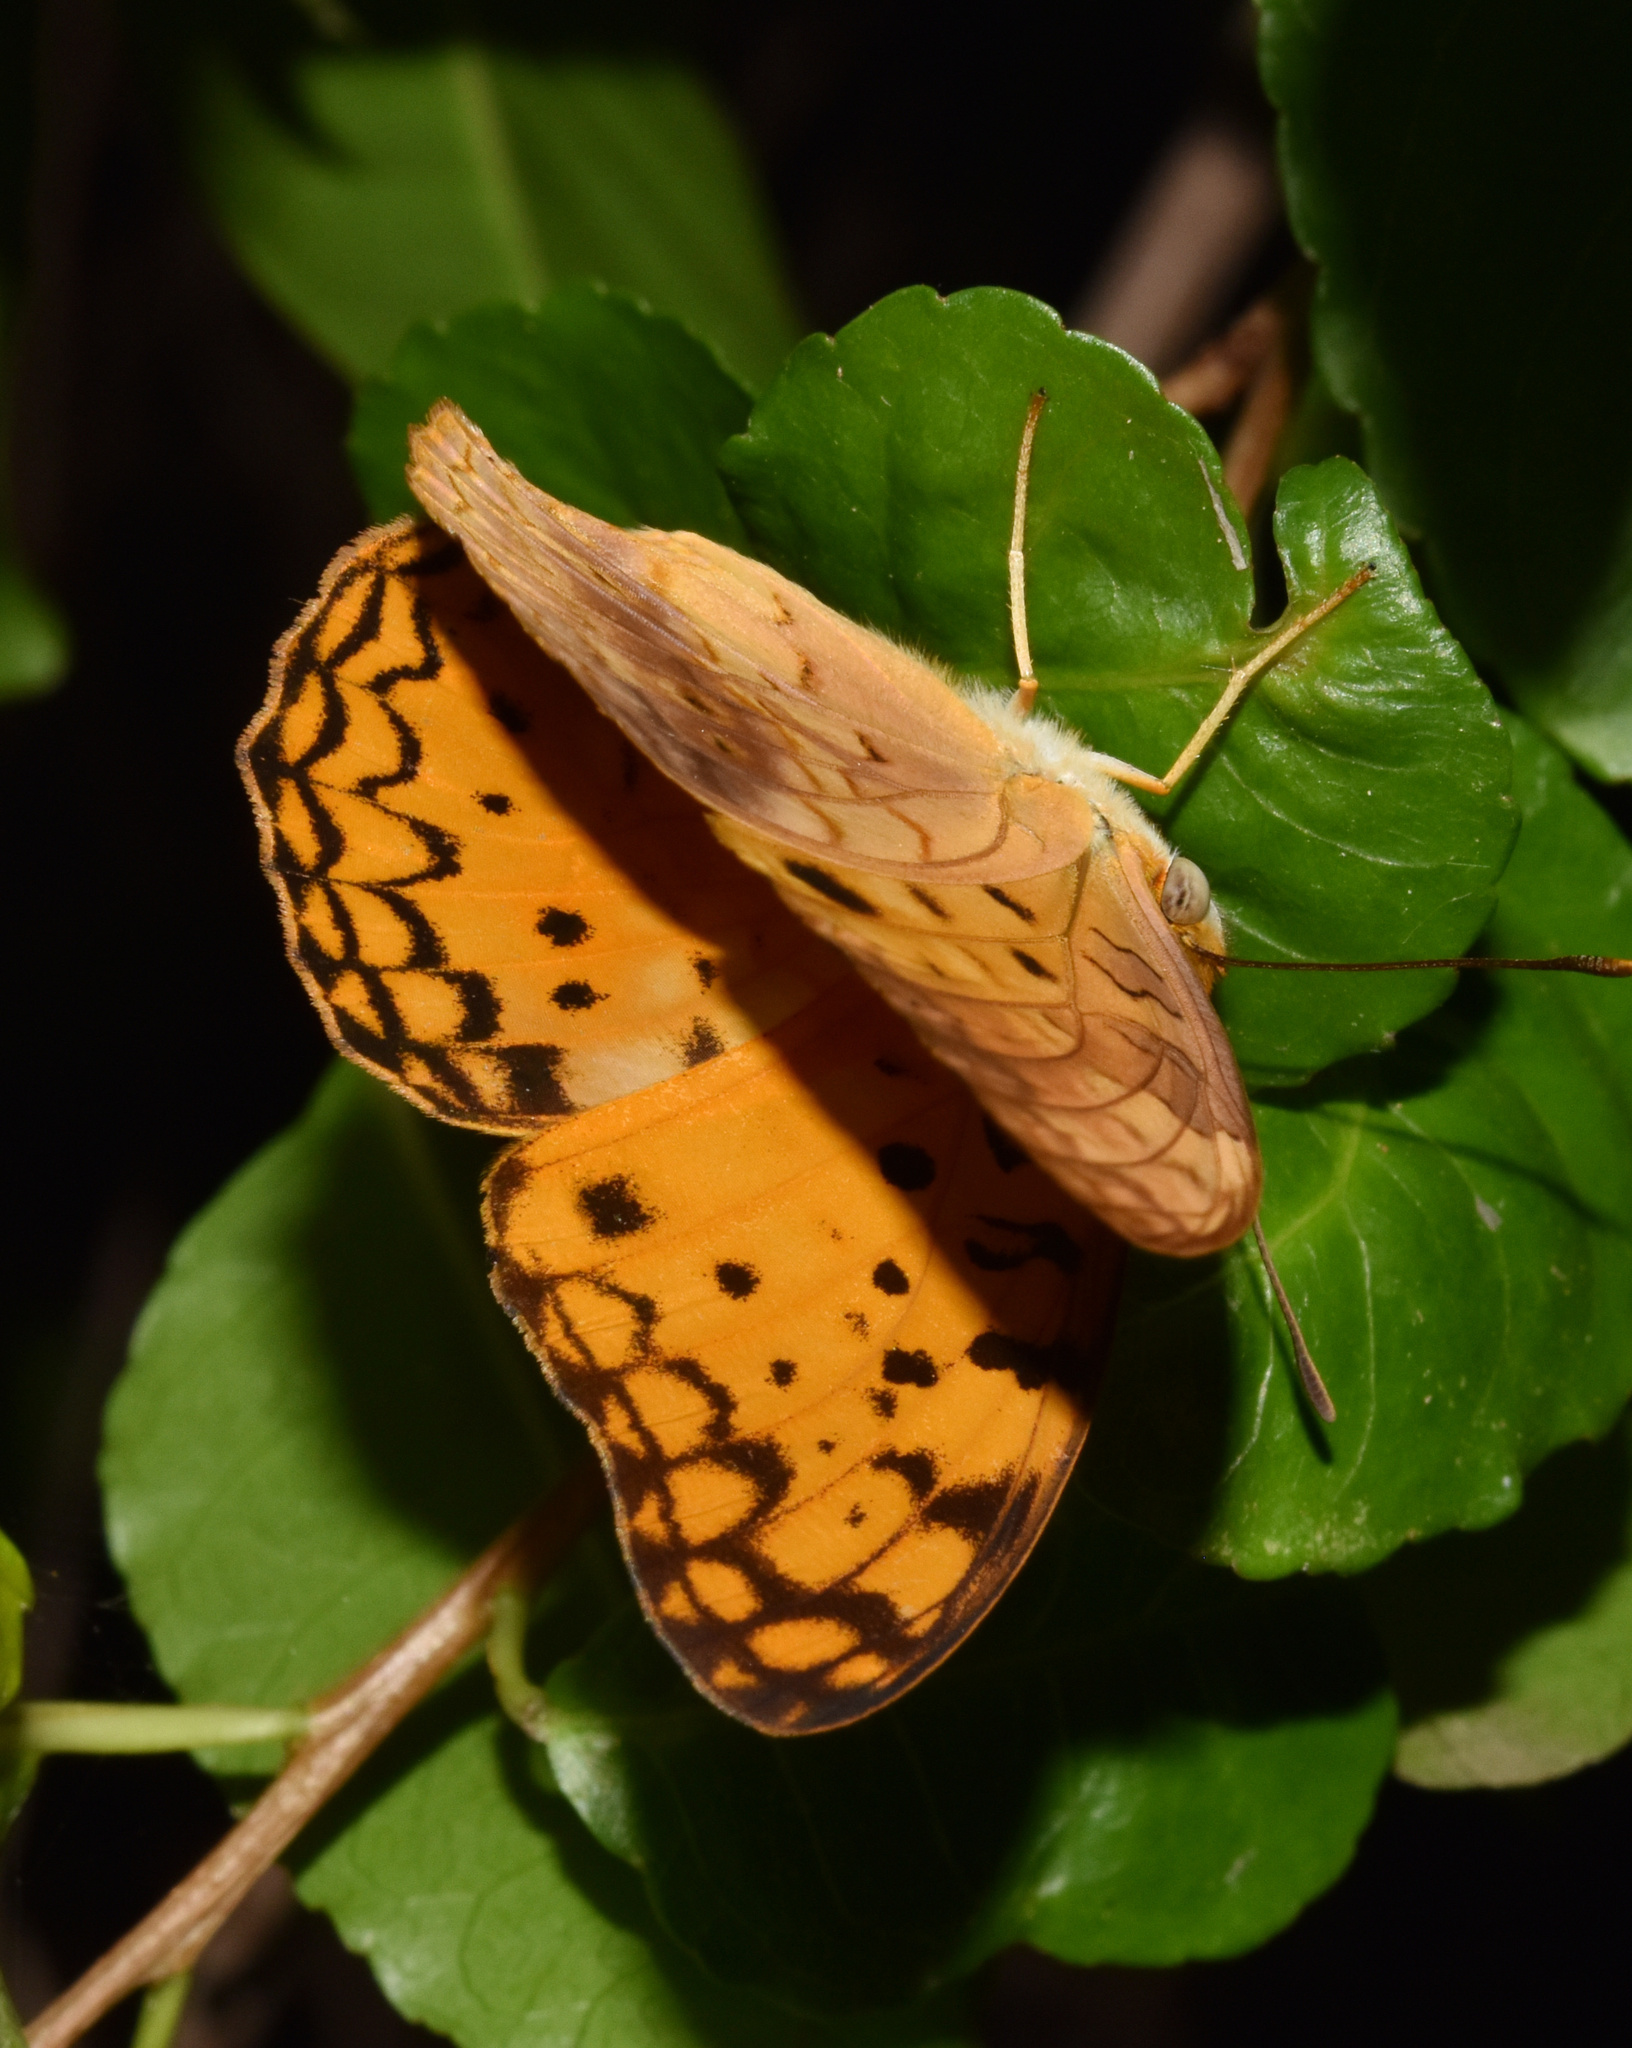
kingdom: Animalia
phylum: Arthropoda
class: Insecta
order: Lepidoptera
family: Nymphalidae
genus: Phalanta
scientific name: Phalanta phalantha
